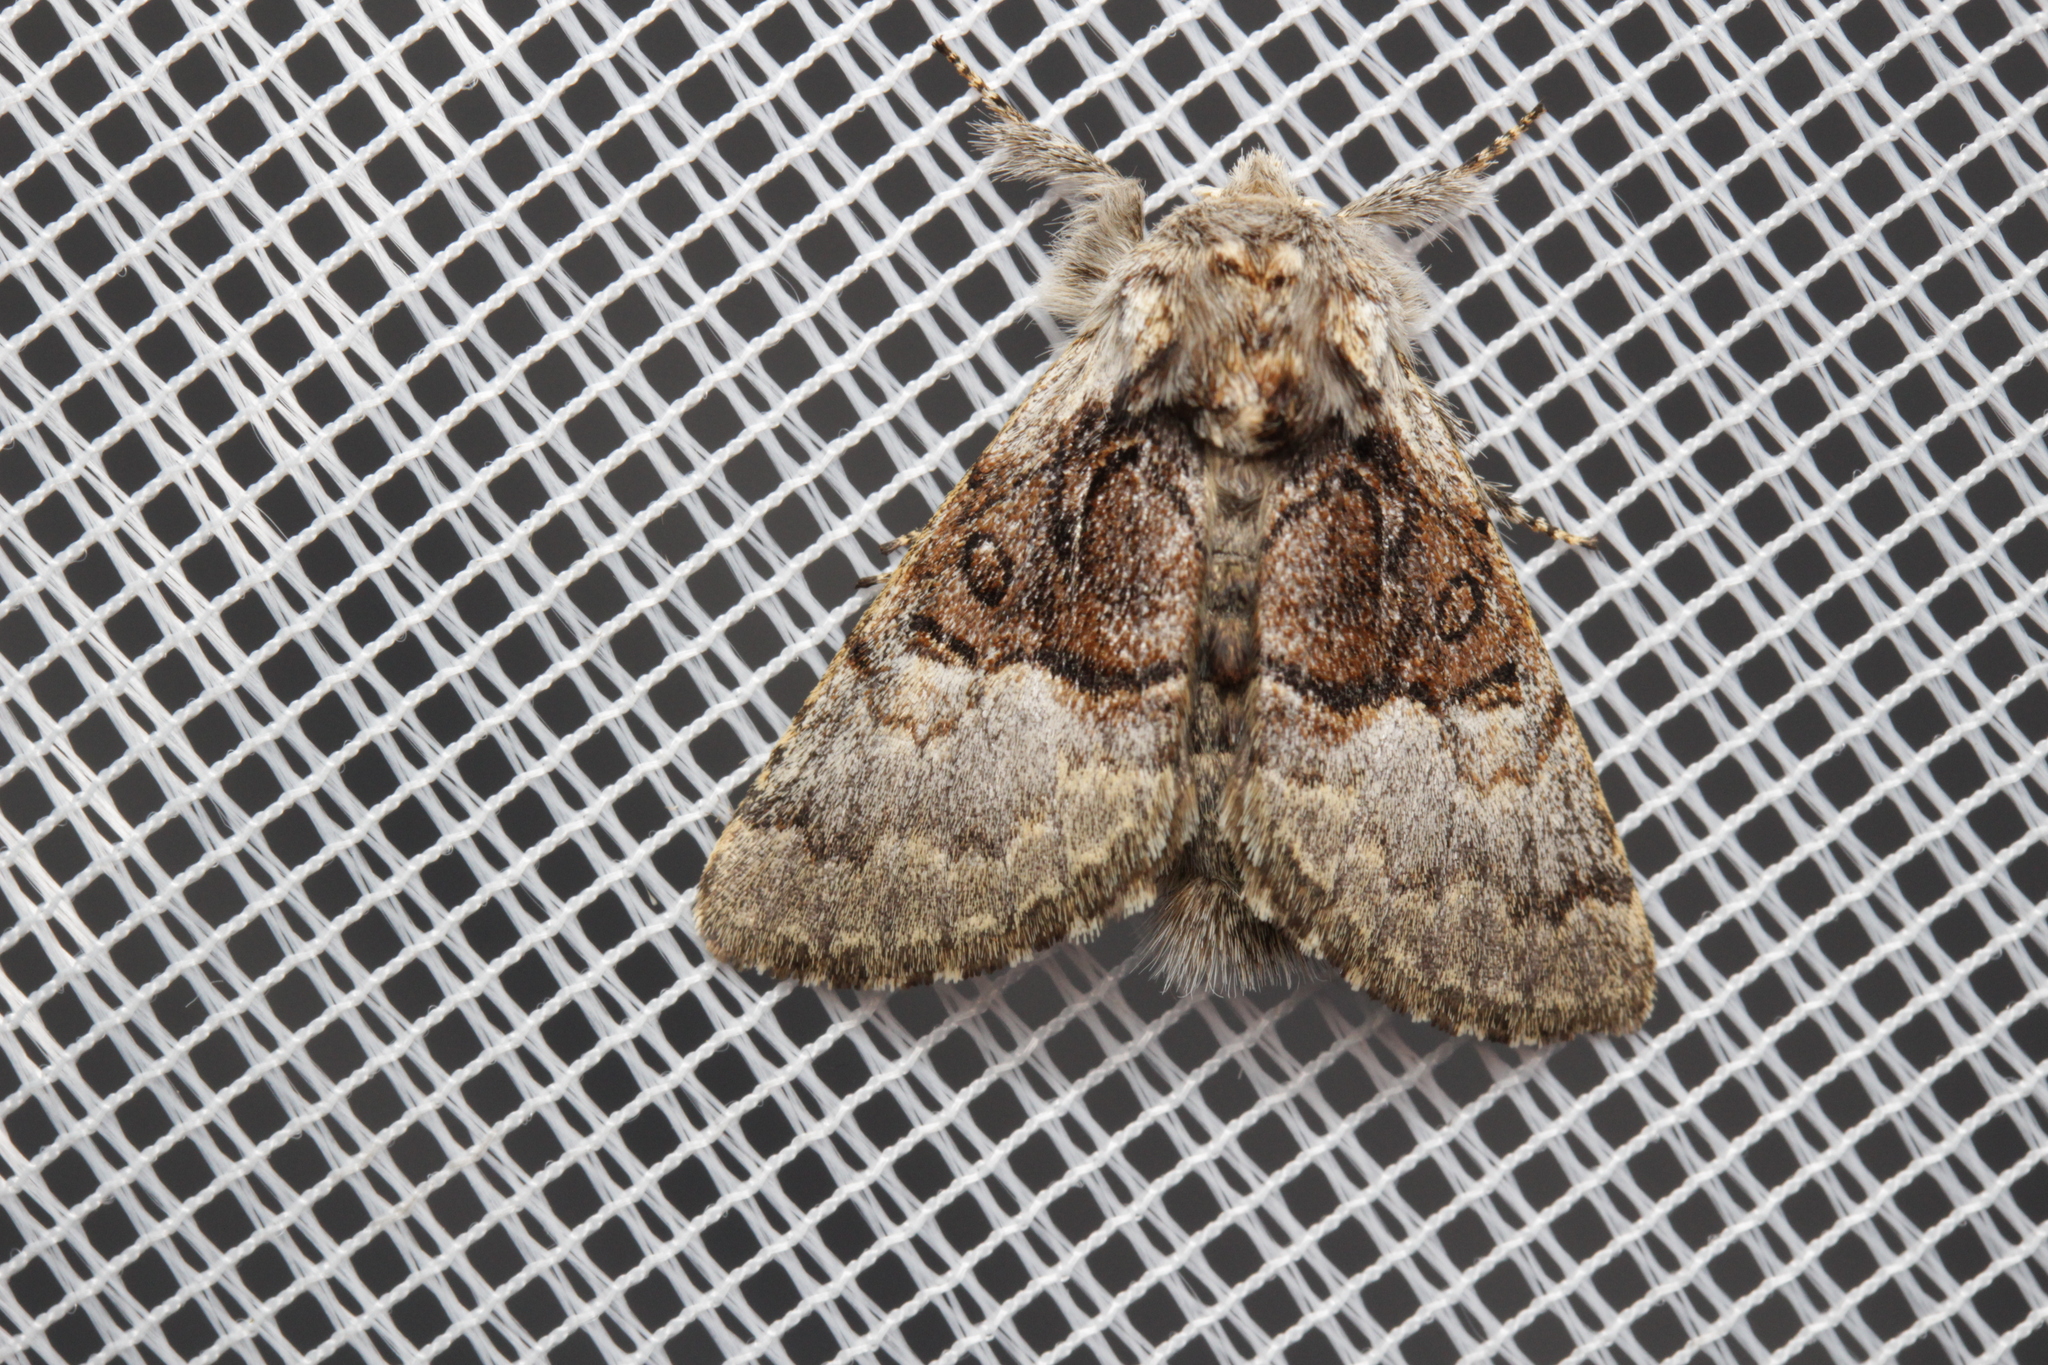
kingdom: Animalia
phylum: Arthropoda
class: Insecta
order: Lepidoptera
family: Noctuidae
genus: Colocasia
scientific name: Colocasia coryli
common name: Nut-tree tussock
